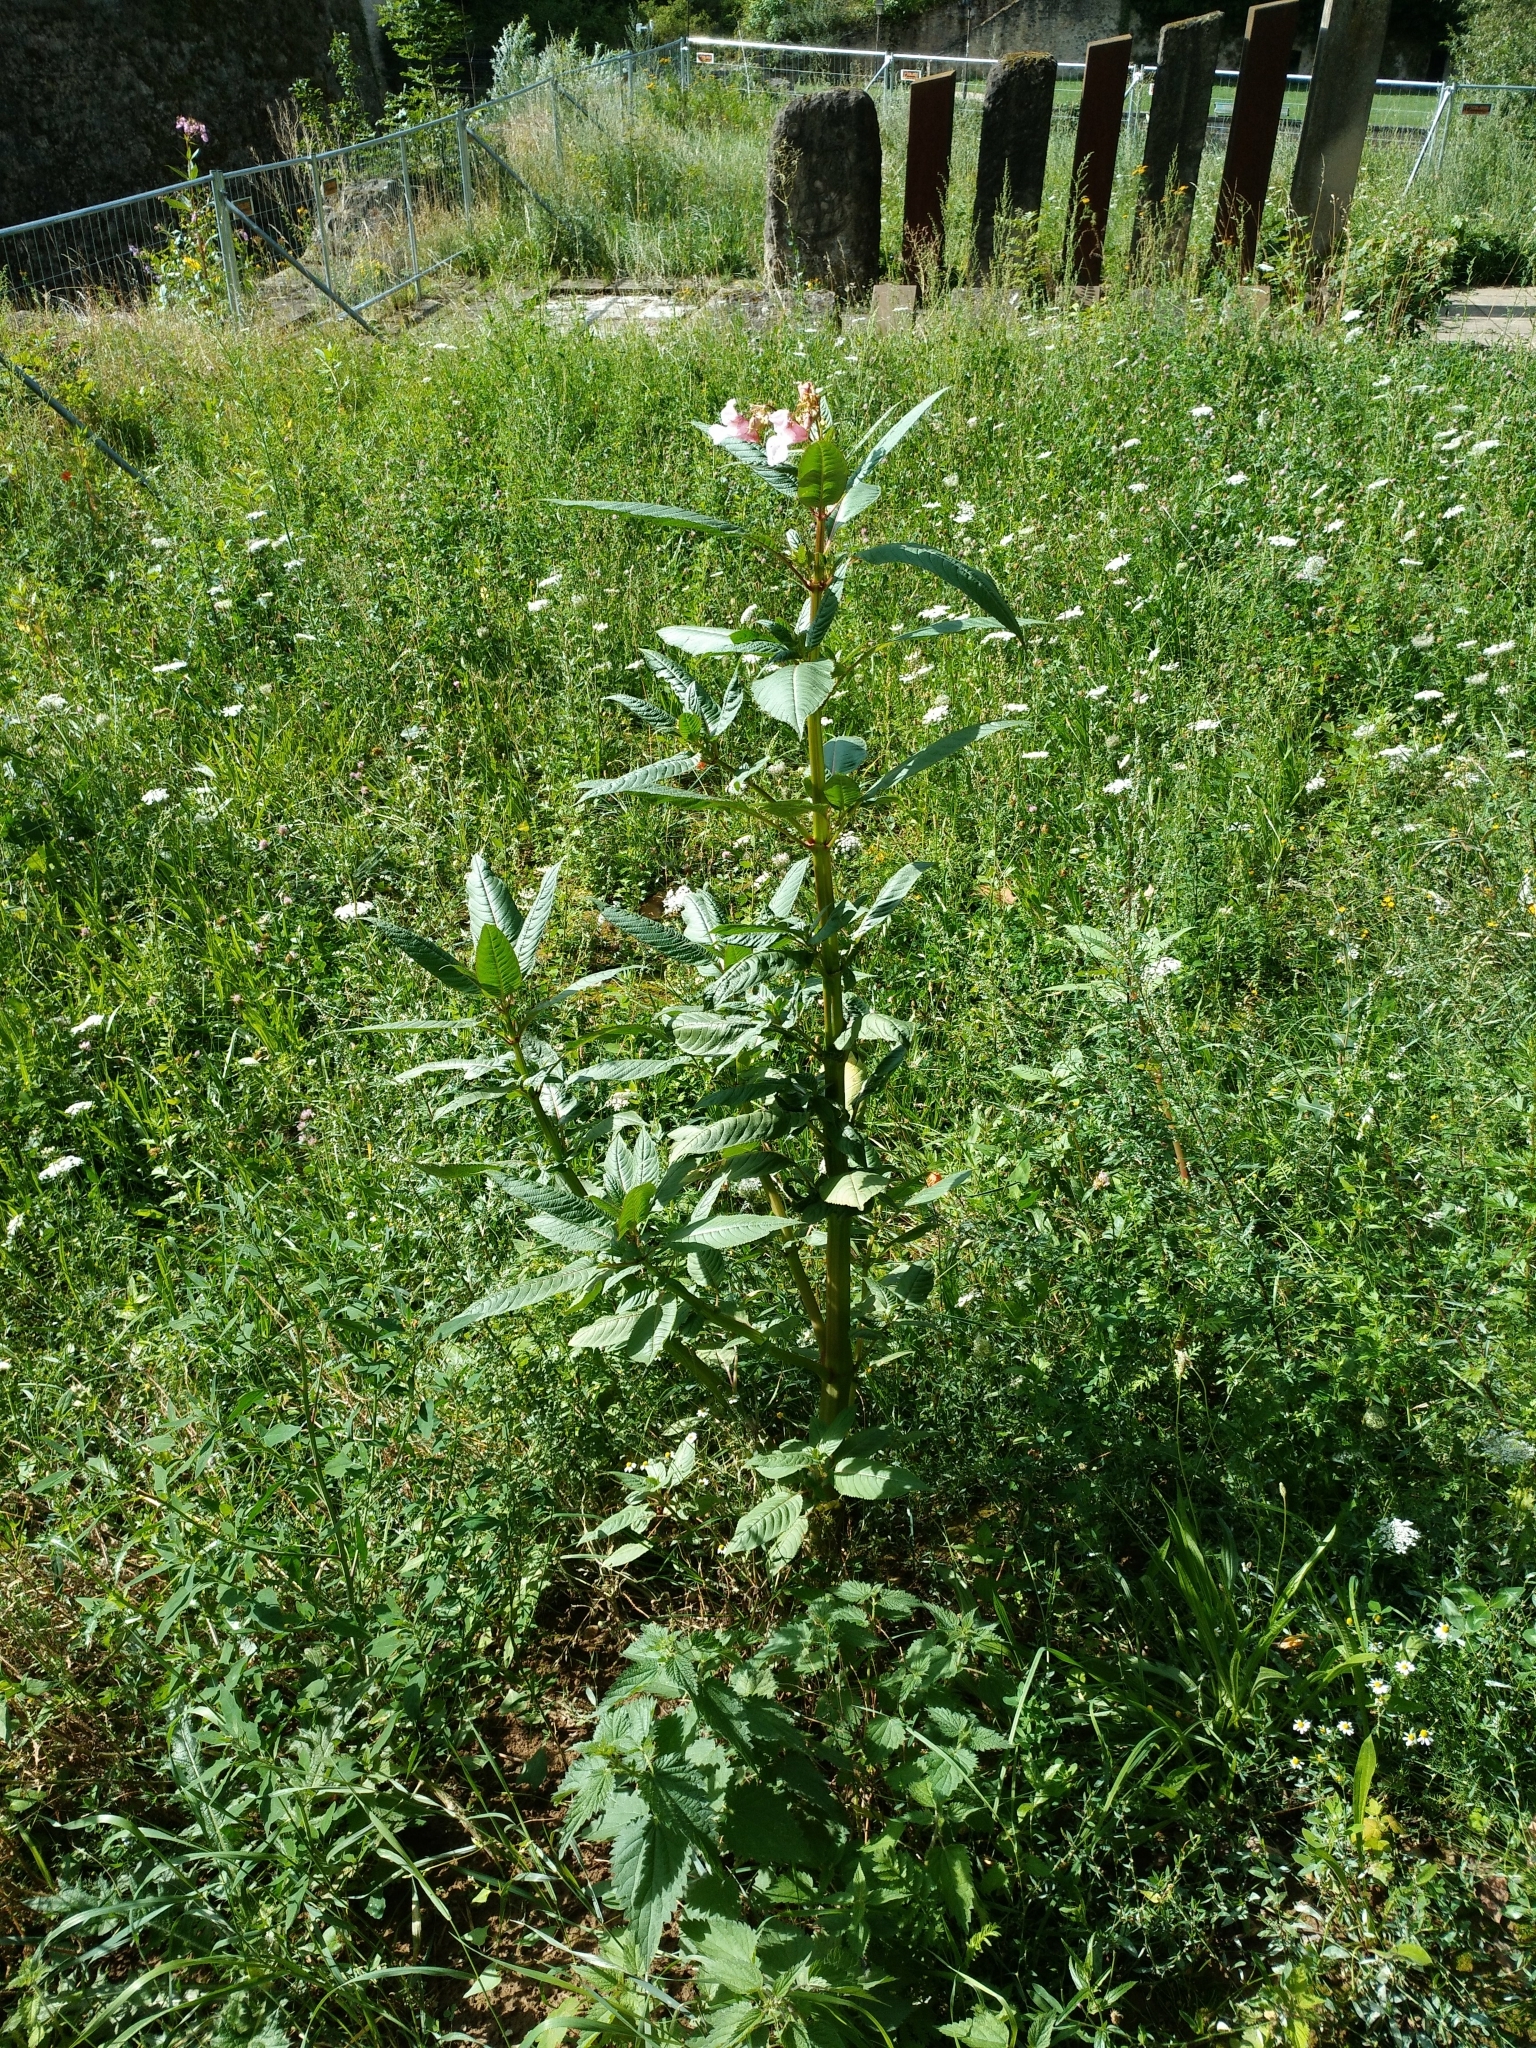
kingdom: Plantae
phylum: Tracheophyta
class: Magnoliopsida
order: Ericales
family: Balsaminaceae
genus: Impatiens
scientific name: Impatiens glandulifera
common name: Himalayan balsam
